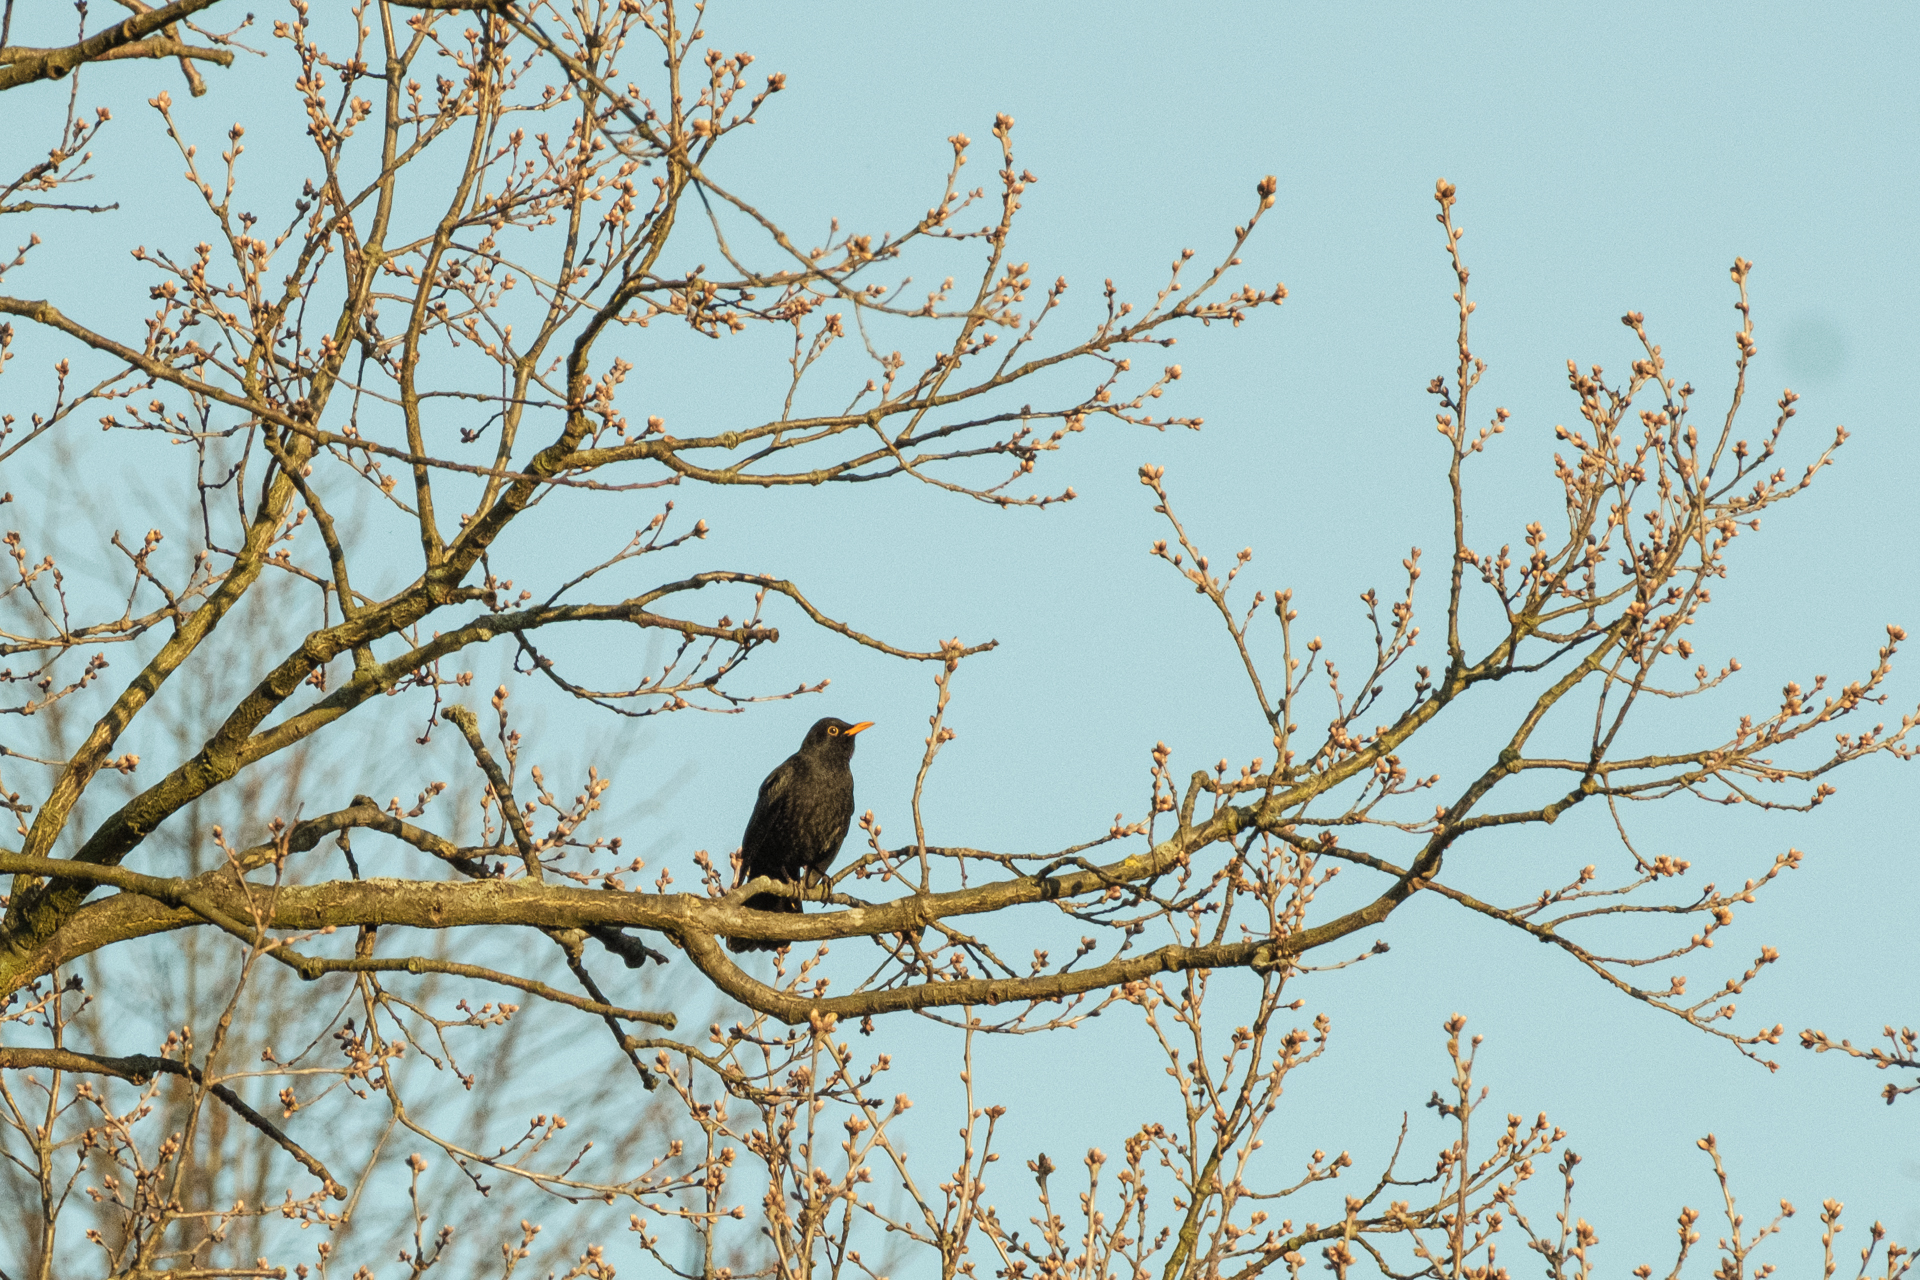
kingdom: Animalia
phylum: Chordata
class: Aves
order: Passeriformes
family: Turdidae
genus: Turdus
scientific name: Turdus merula
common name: Common blackbird
